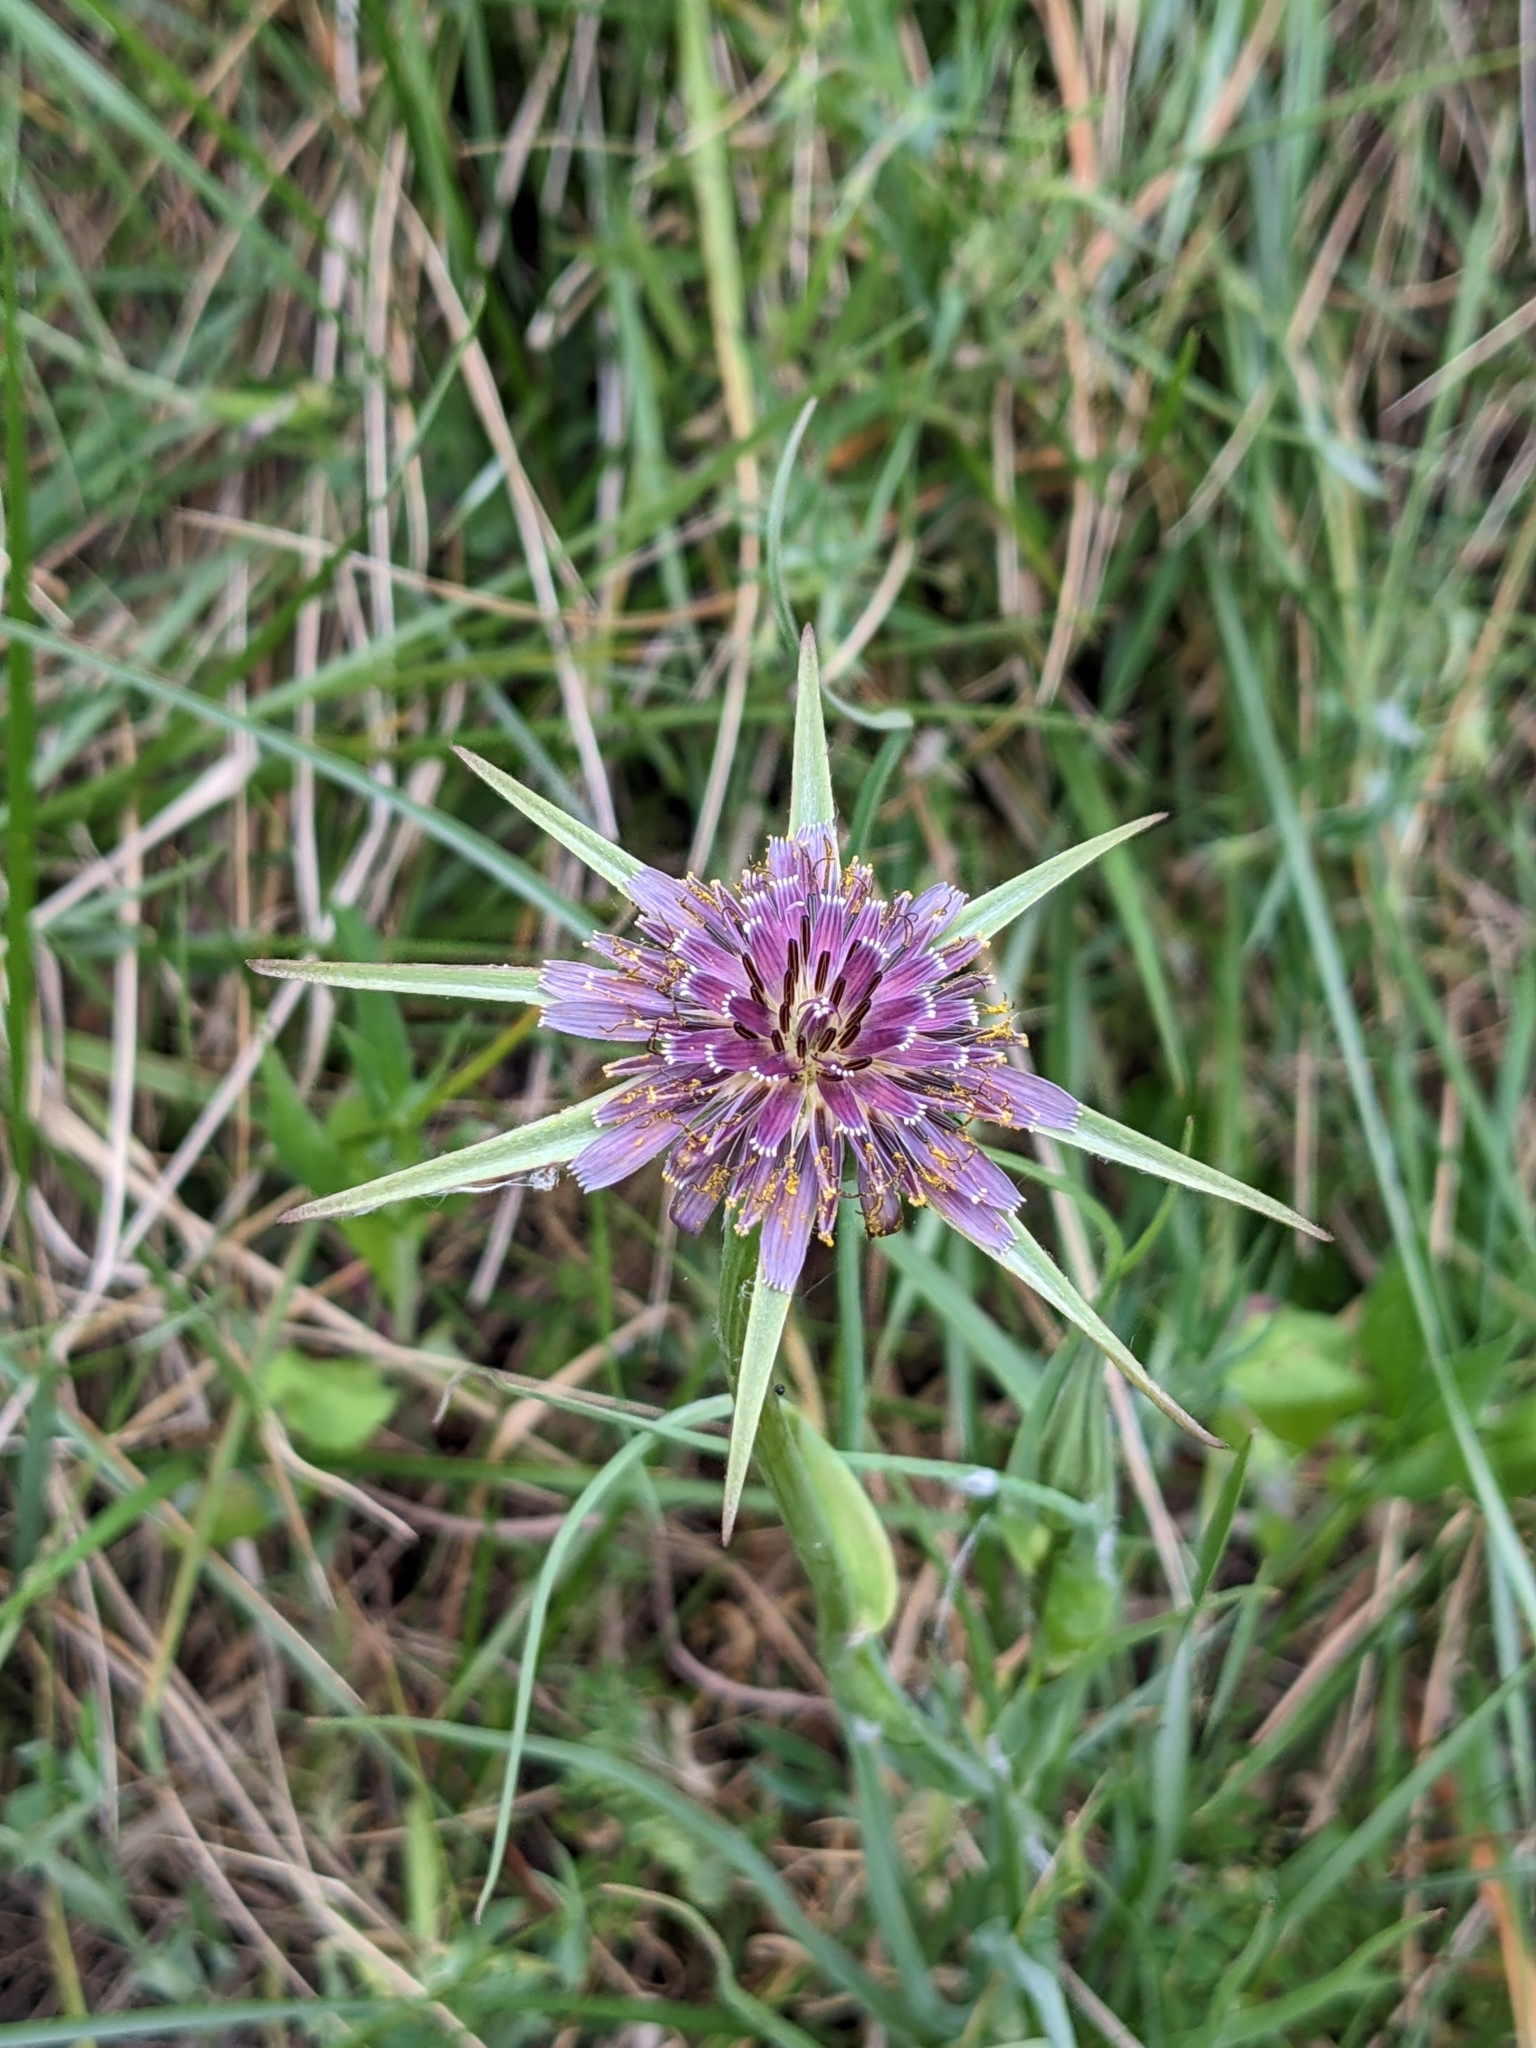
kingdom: Plantae
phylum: Tracheophyta
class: Magnoliopsida
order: Asterales
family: Asteraceae
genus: Tragopogon
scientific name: Tragopogon porrifolius
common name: Salsify
